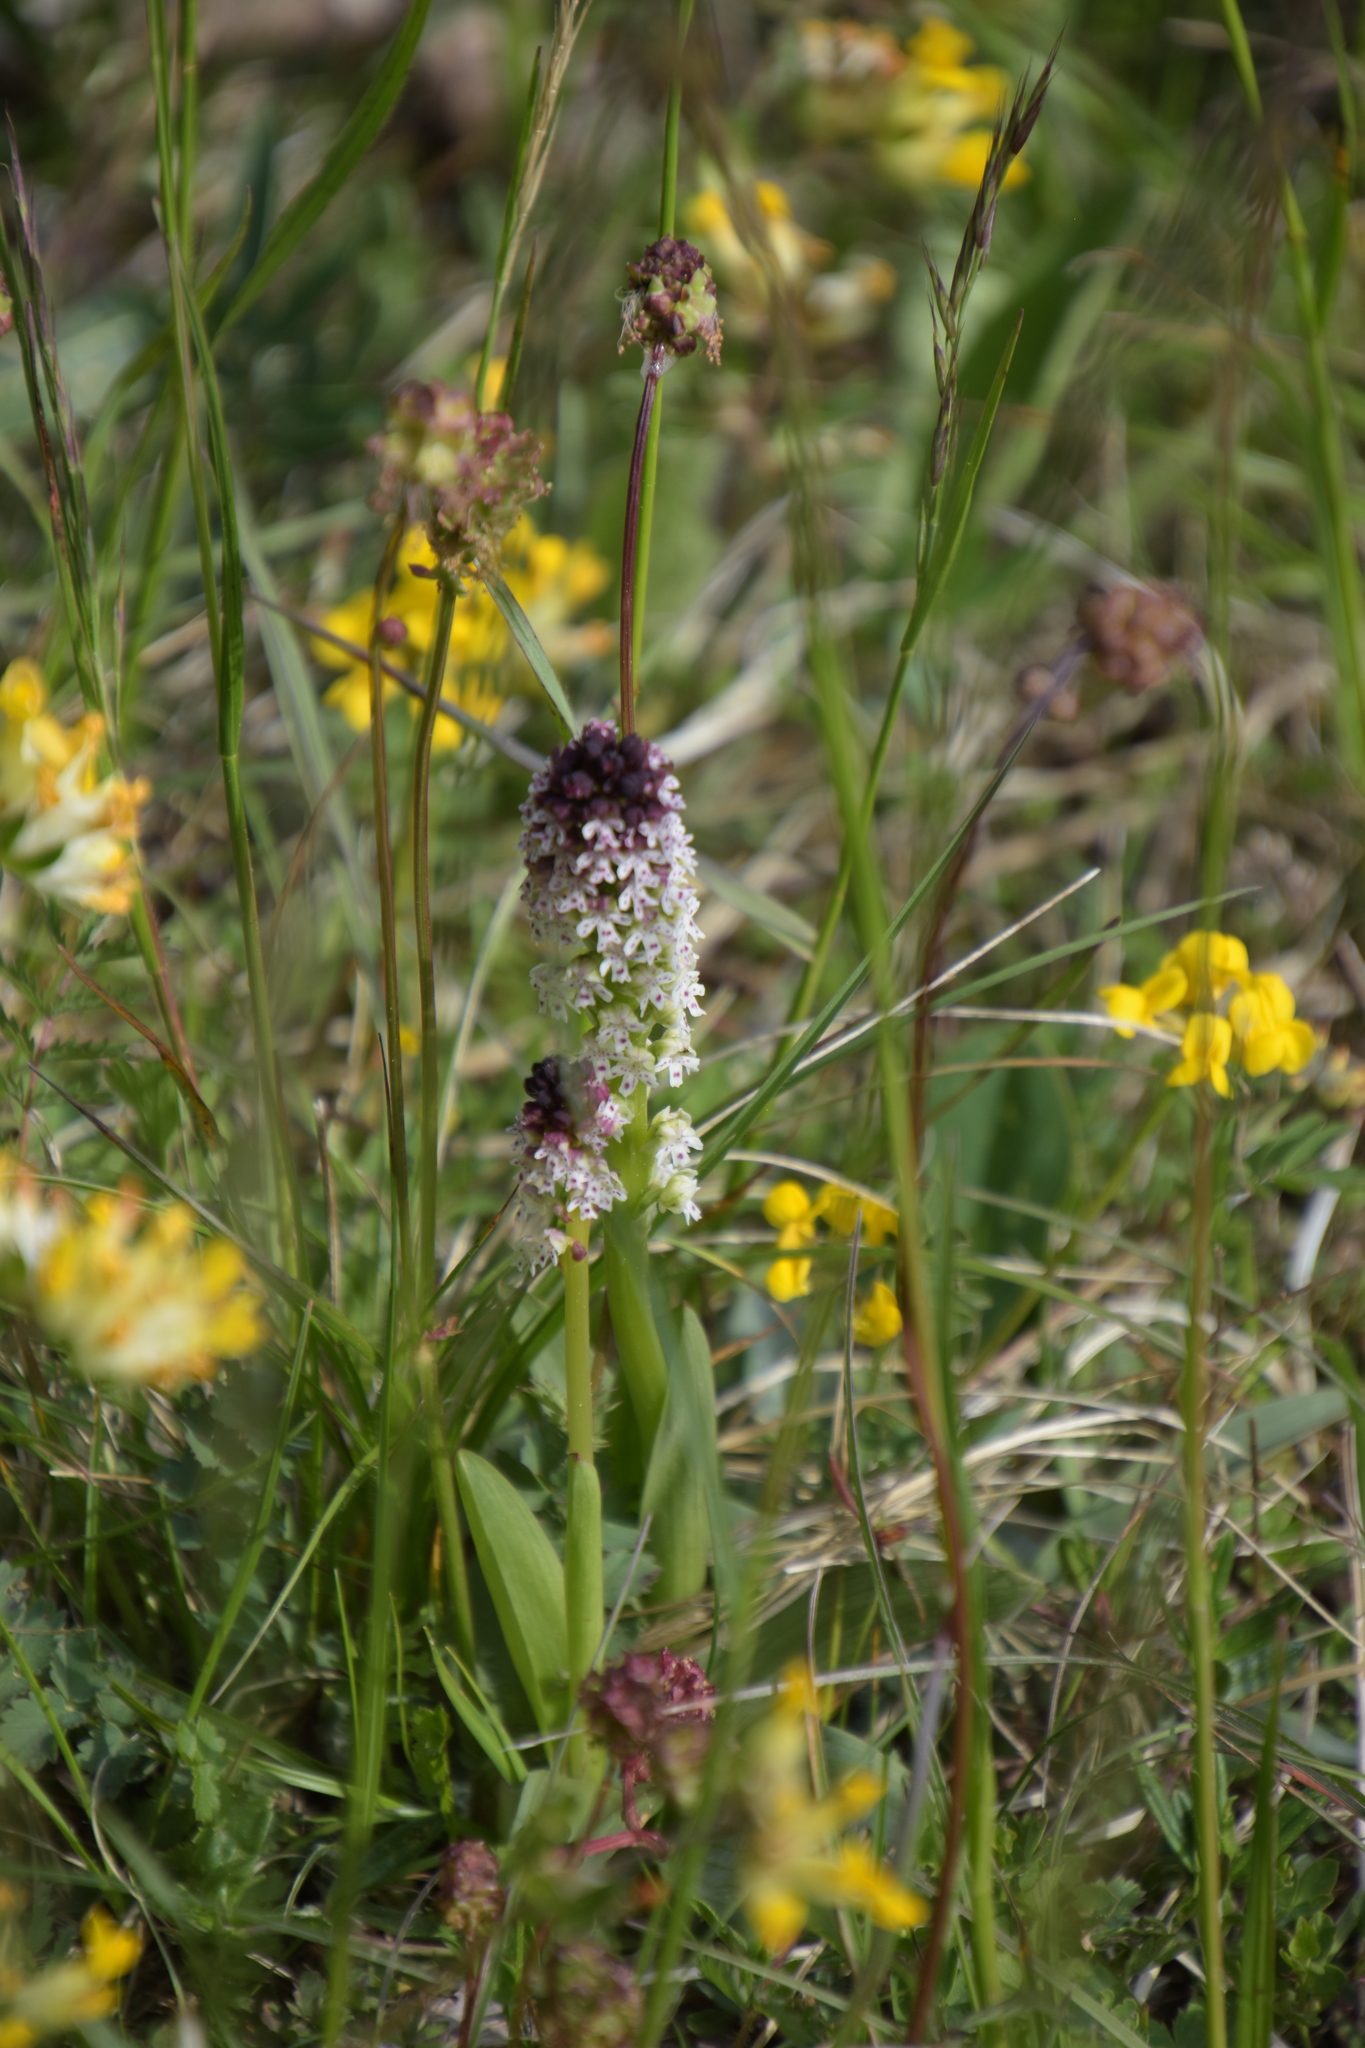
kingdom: Plantae
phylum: Tracheophyta
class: Liliopsida
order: Asparagales
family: Orchidaceae
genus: Neotinea
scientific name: Neotinea ustulata
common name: Burnt orchid
